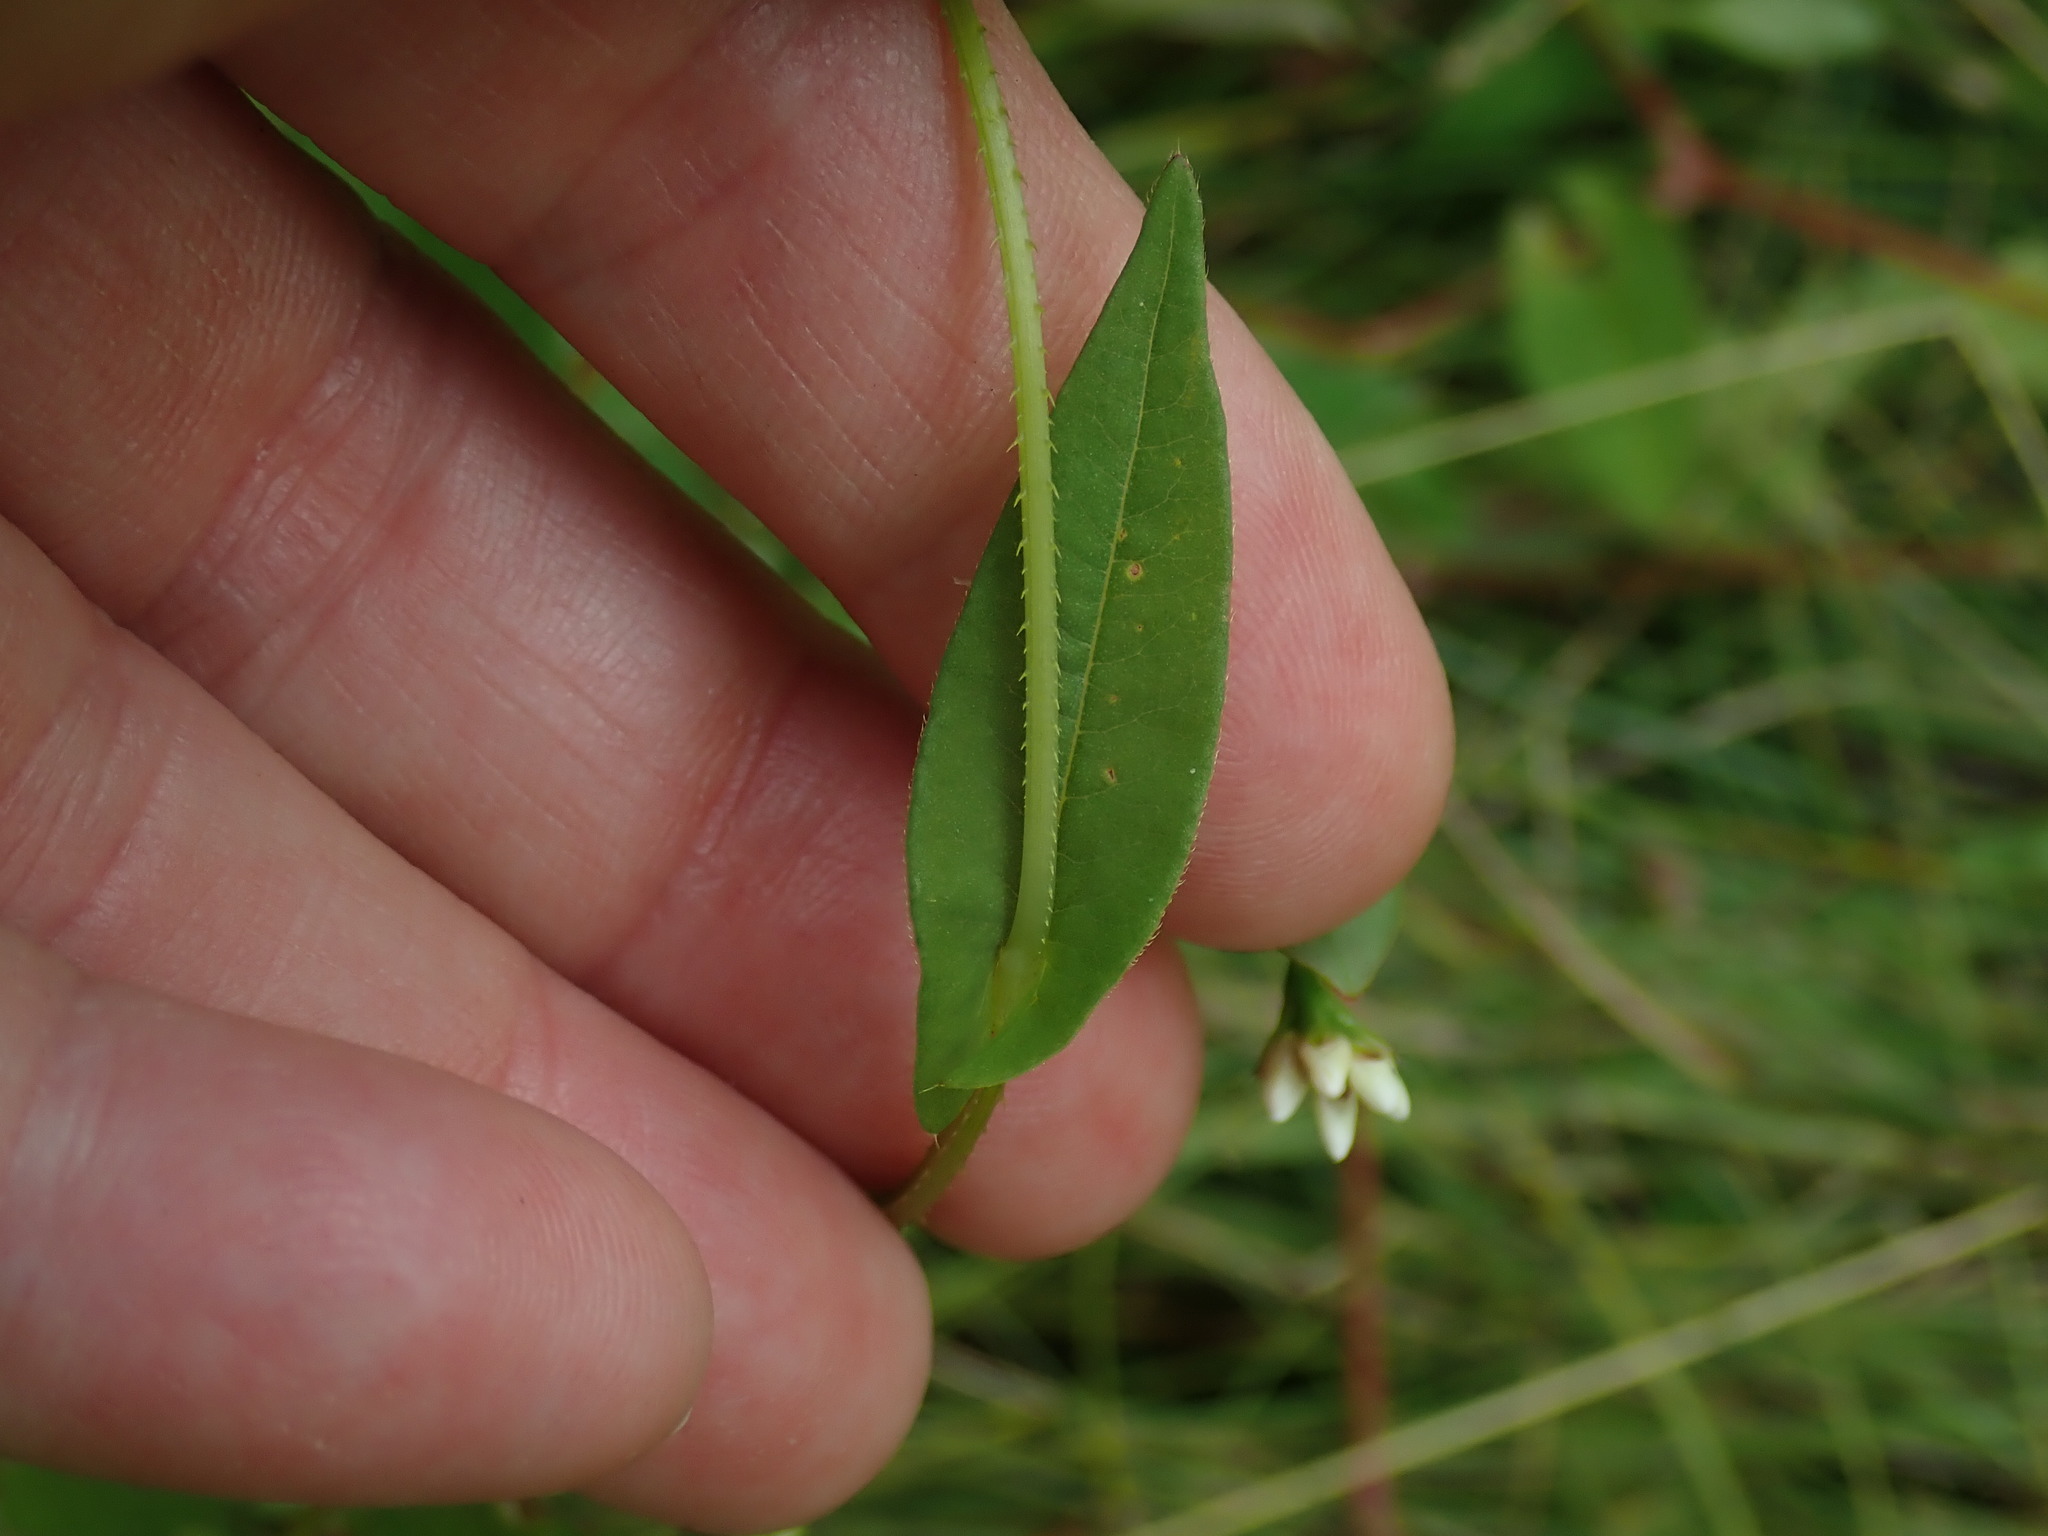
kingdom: Plantae
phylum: Tracheophyta
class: Magnoliopsida
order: Caryophyllales
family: Polygonaceae
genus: Persicaria
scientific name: Persicaria sagittata
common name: American tearthumb
